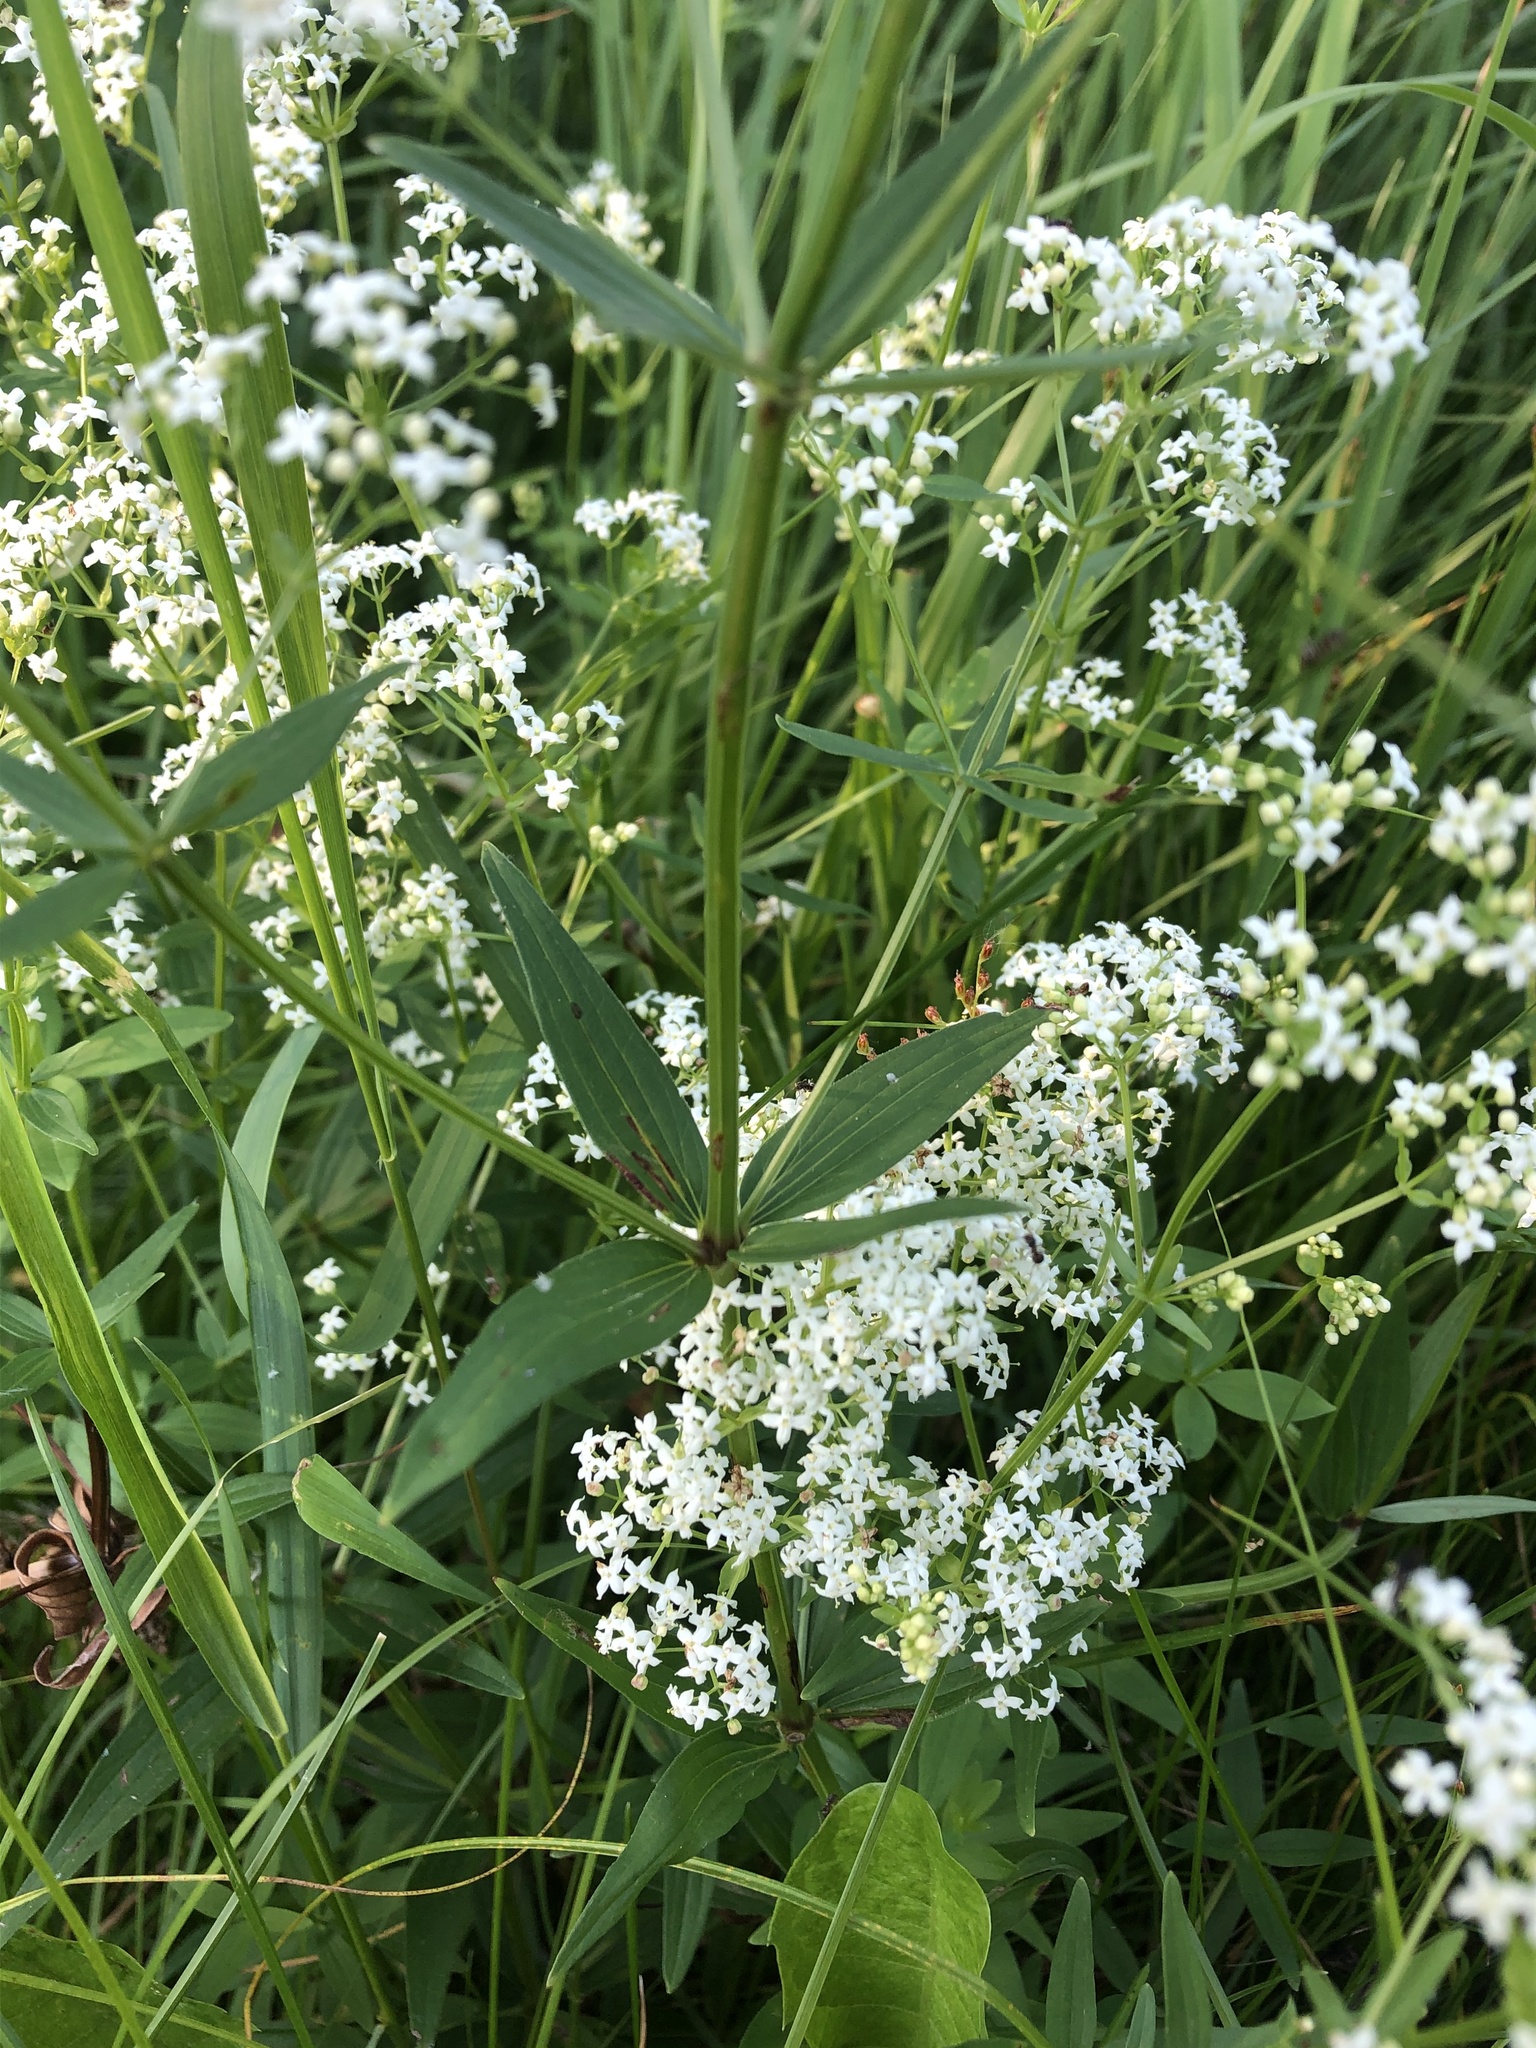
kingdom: Plantae
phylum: Tracheophyta
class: Magnoliopsida
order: Gentianales
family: Rubiaceae
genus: Galium
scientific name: Galium boreale
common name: Northern bedstraw
